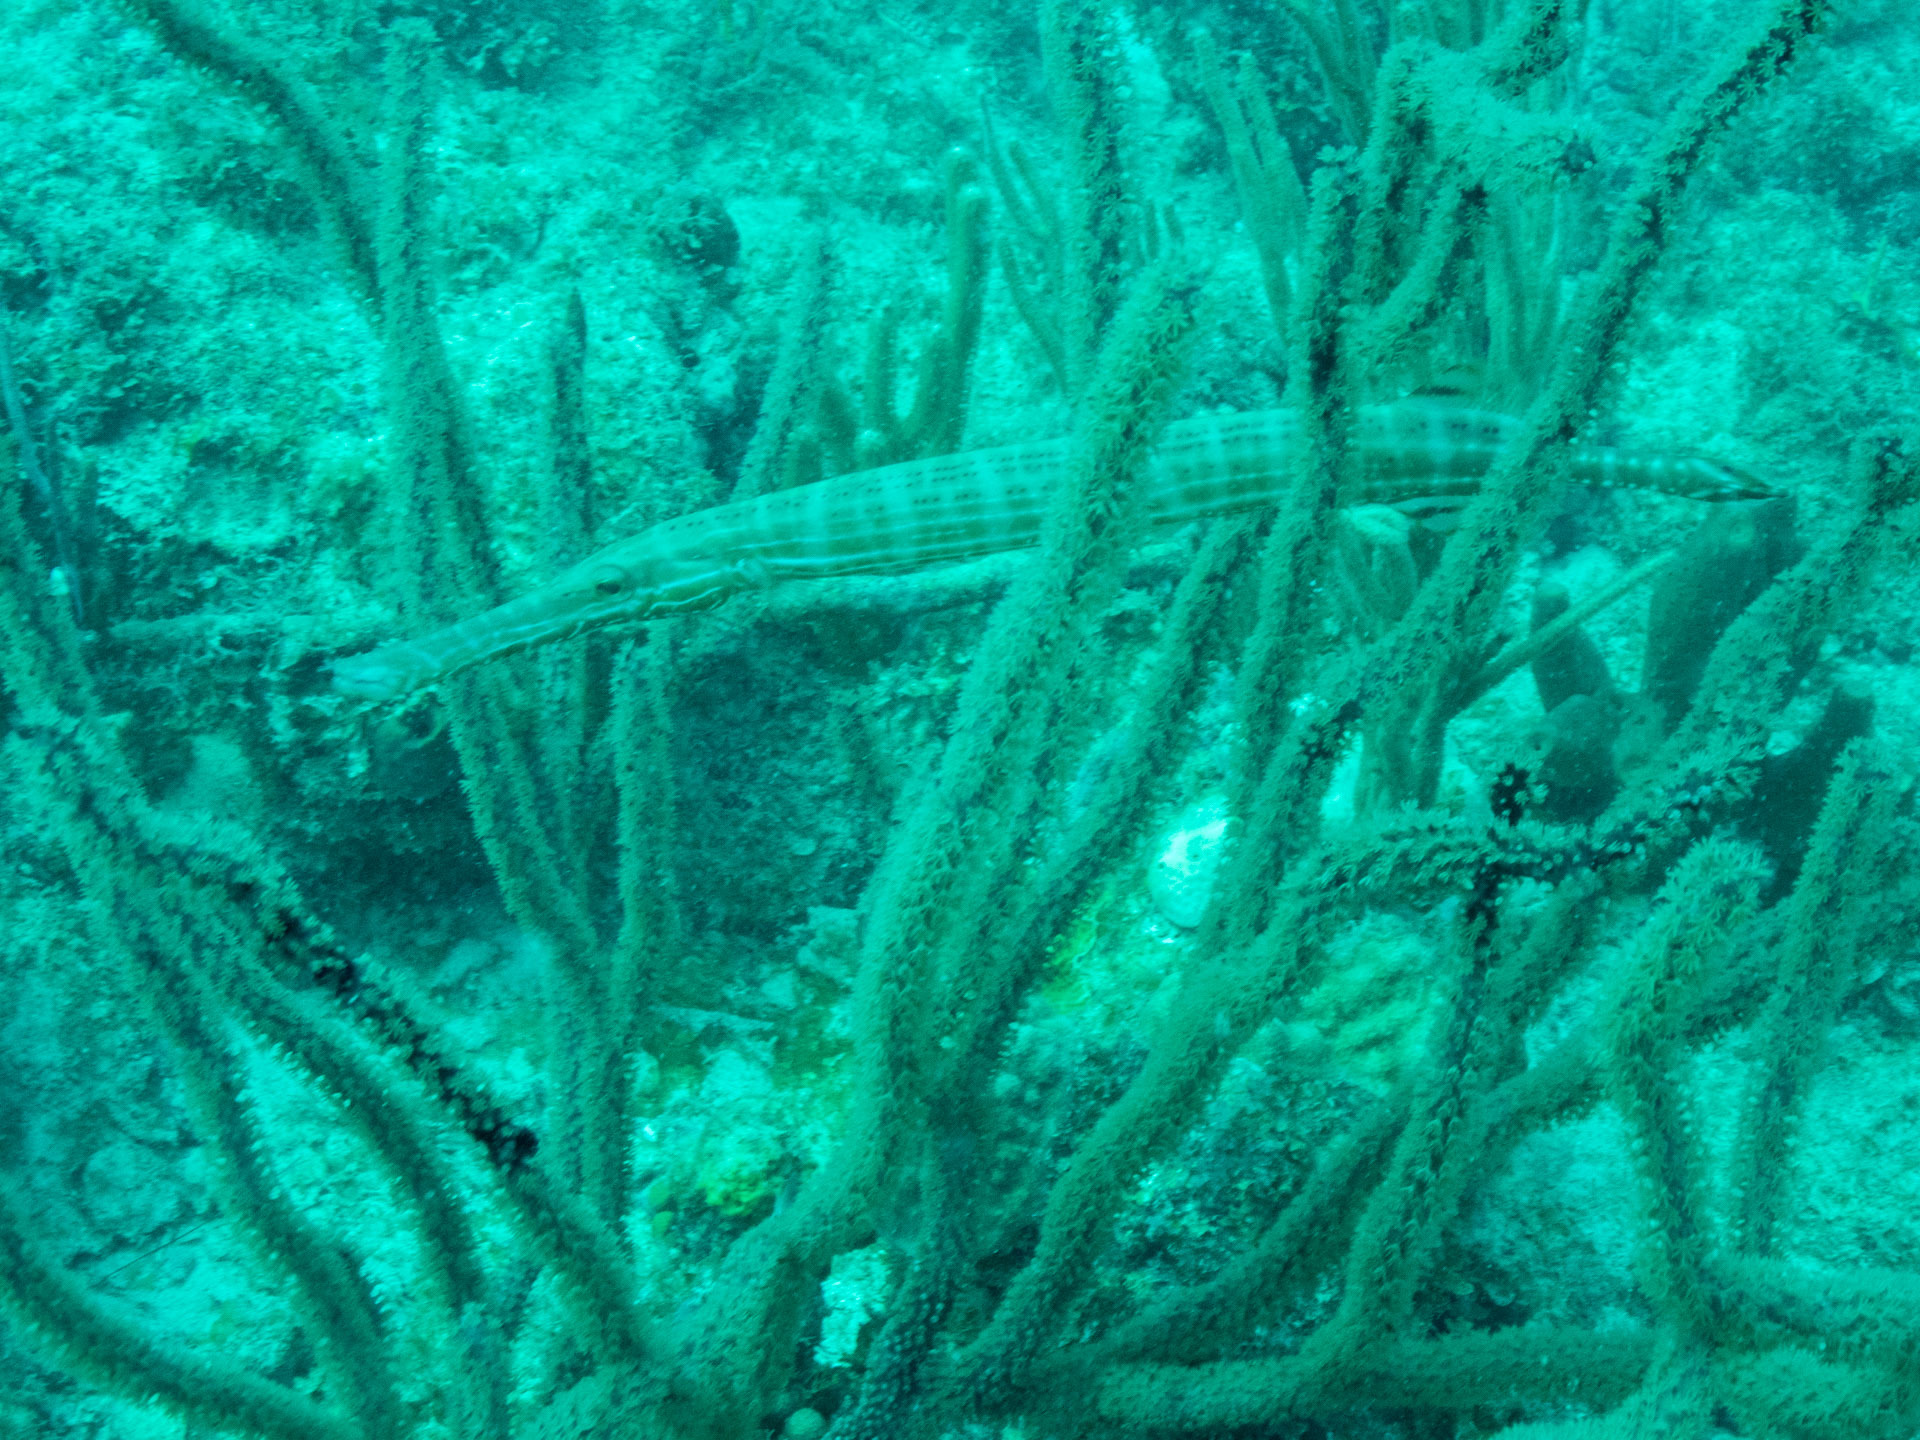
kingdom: Animalia
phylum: Chordata
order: Syngnathiformes
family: Aulostomidae
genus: Aulostomus
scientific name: Aulostomus maculatus
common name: West atlantic trumpetfish
